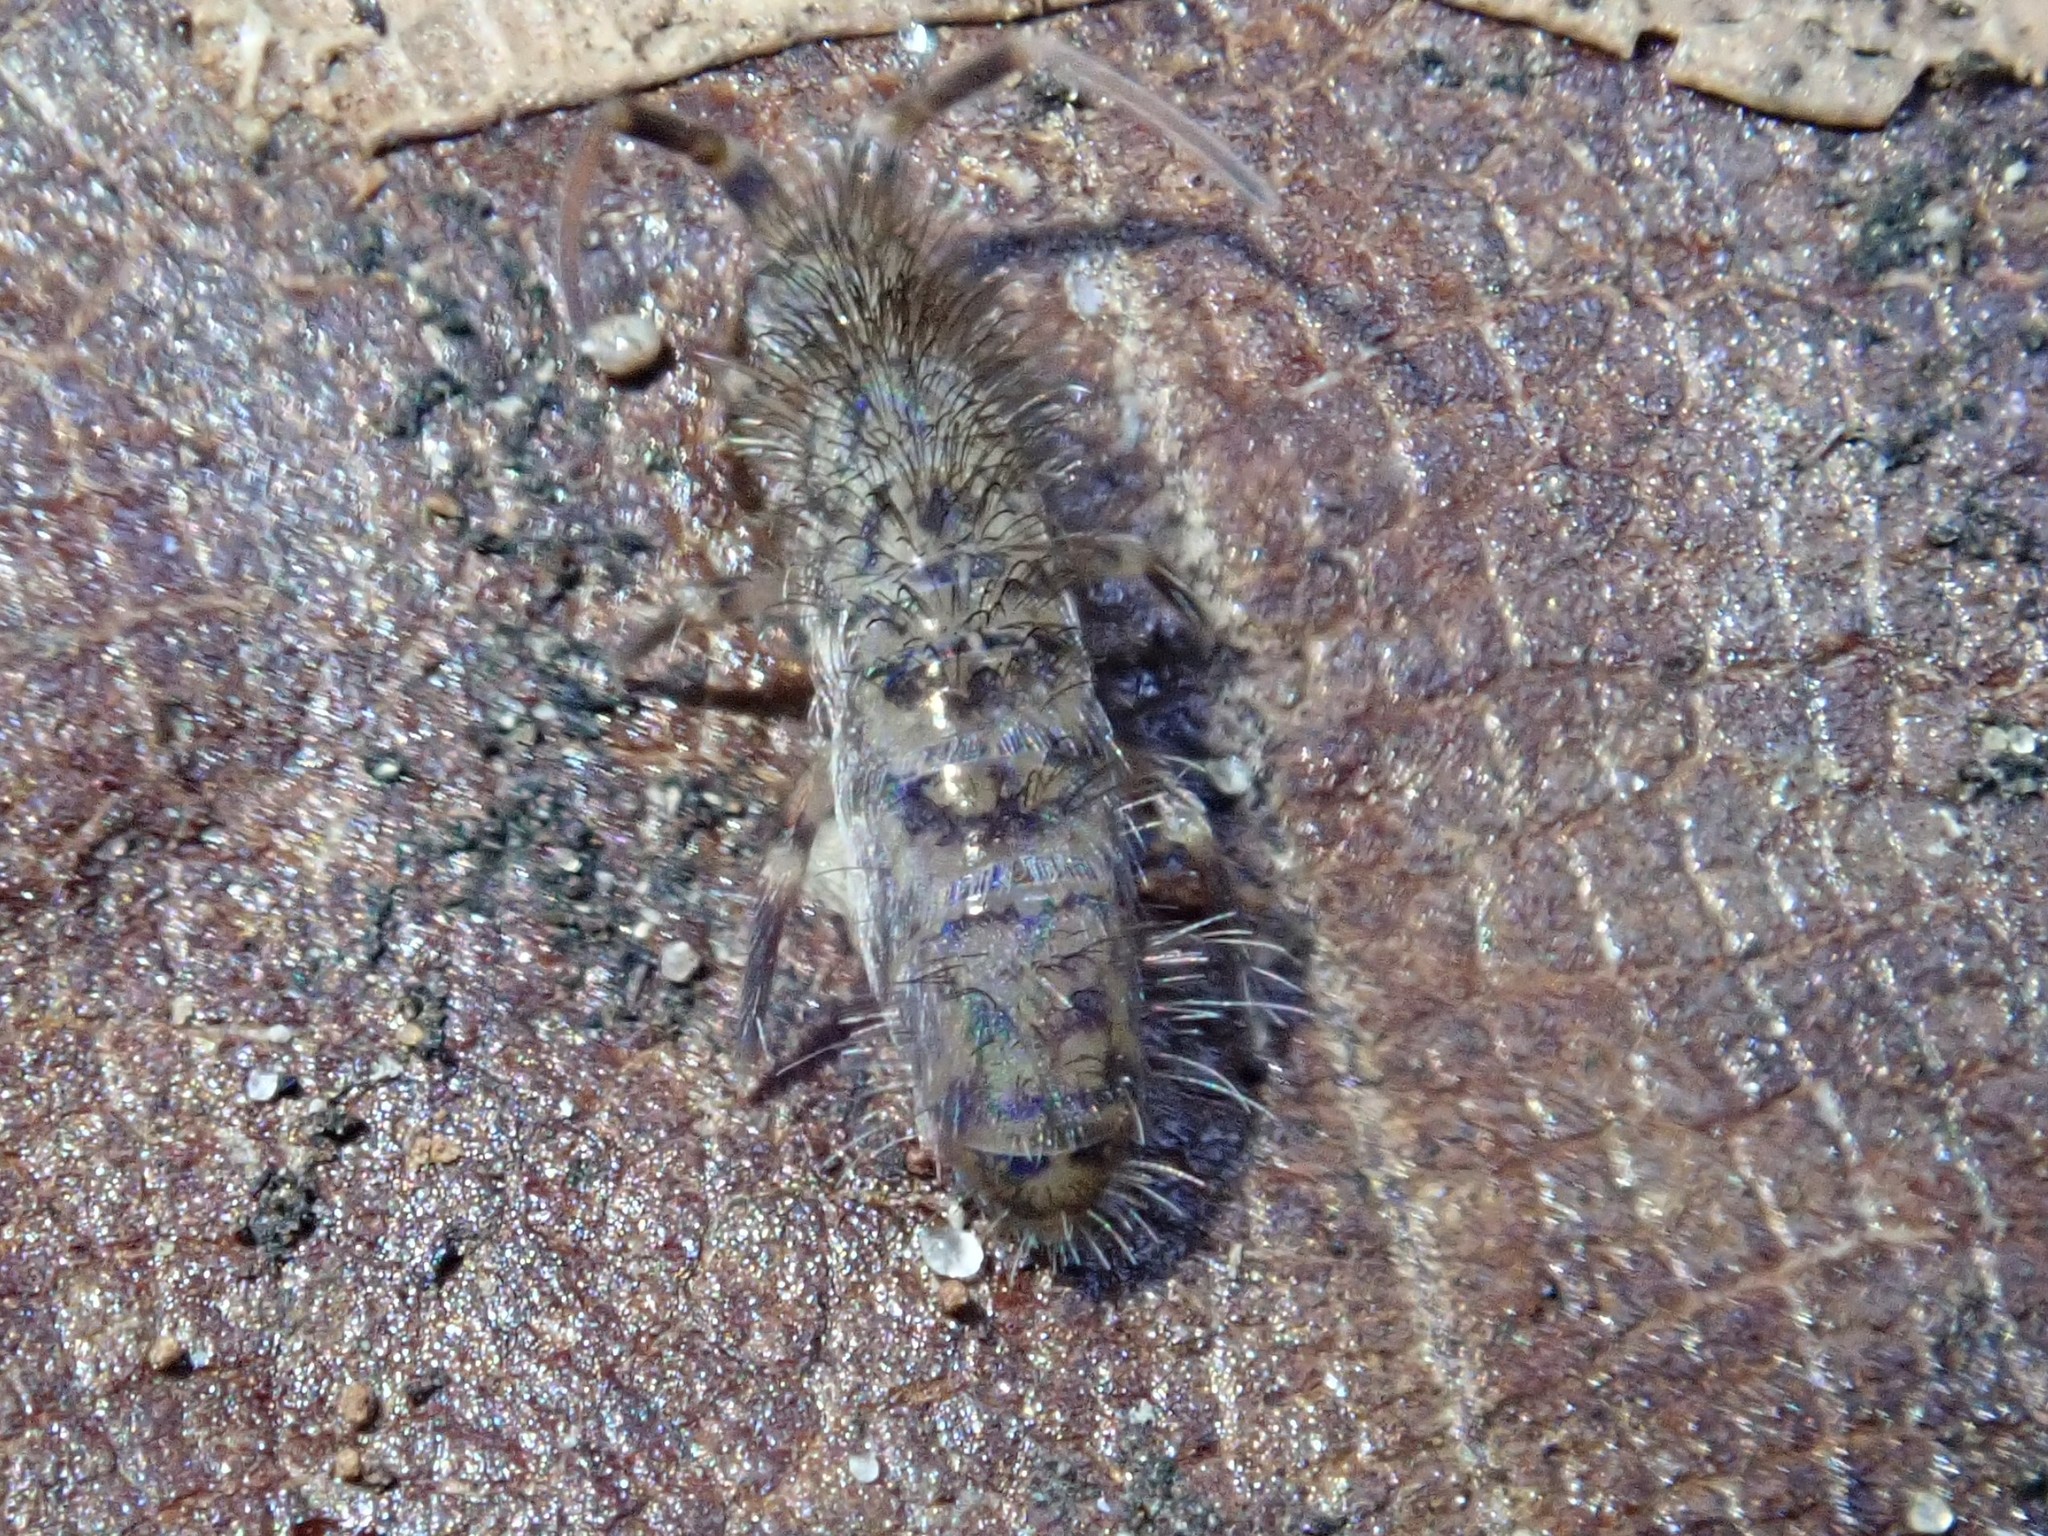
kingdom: Animalia
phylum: Arthropoda
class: Collembola
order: Entomobryomorpha
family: Orchesellidae
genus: Orchesella
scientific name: Orchesella villosa
